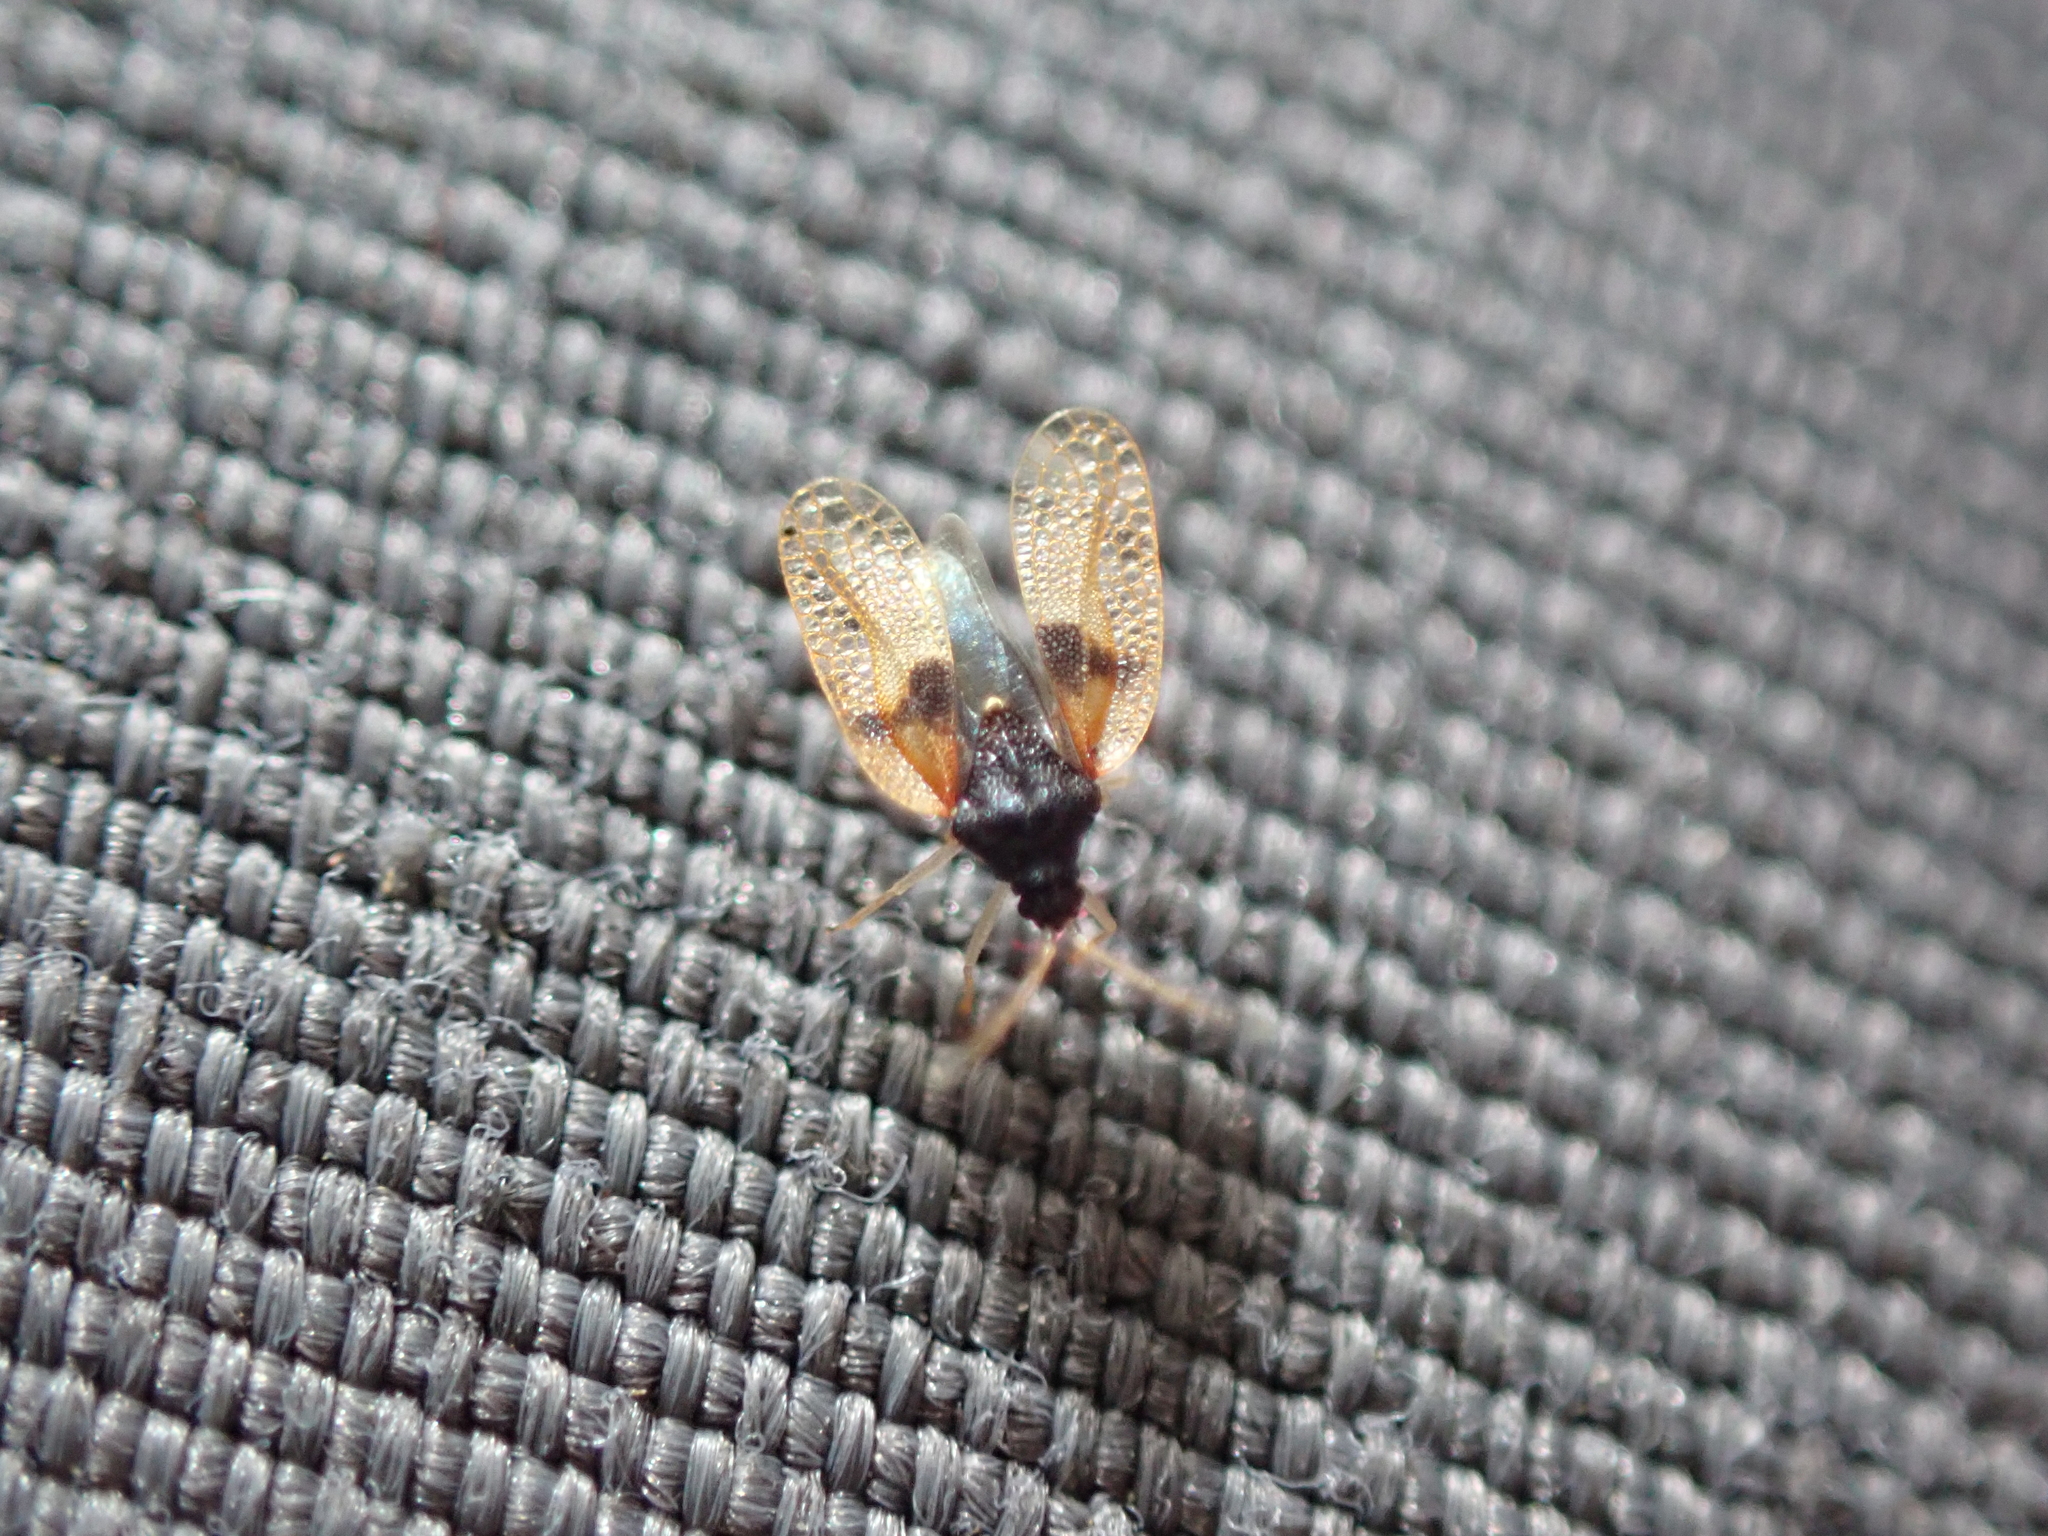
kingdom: Animalia
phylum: Arthropoda
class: Insecta
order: Hemiptera
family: Tingidae
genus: Pseudacysta
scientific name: Pseudacysta perseae
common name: Avocado lace bug
